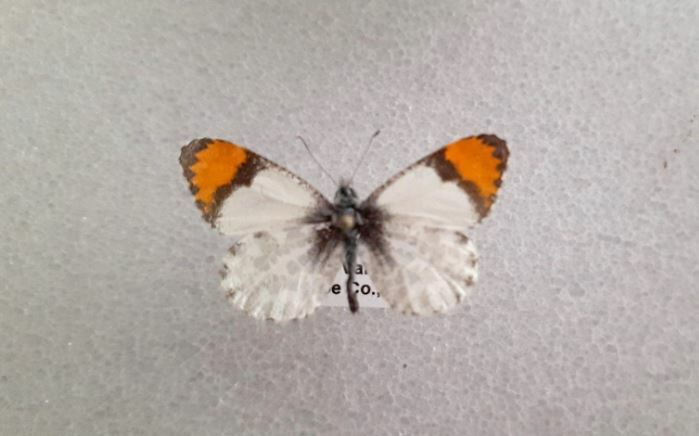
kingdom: Animalia
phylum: Arthropoda
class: Insecta
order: Lepidoptera
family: Pieridae
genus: Anthocharis
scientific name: Anthocharis sara
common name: Sara's orangetip
